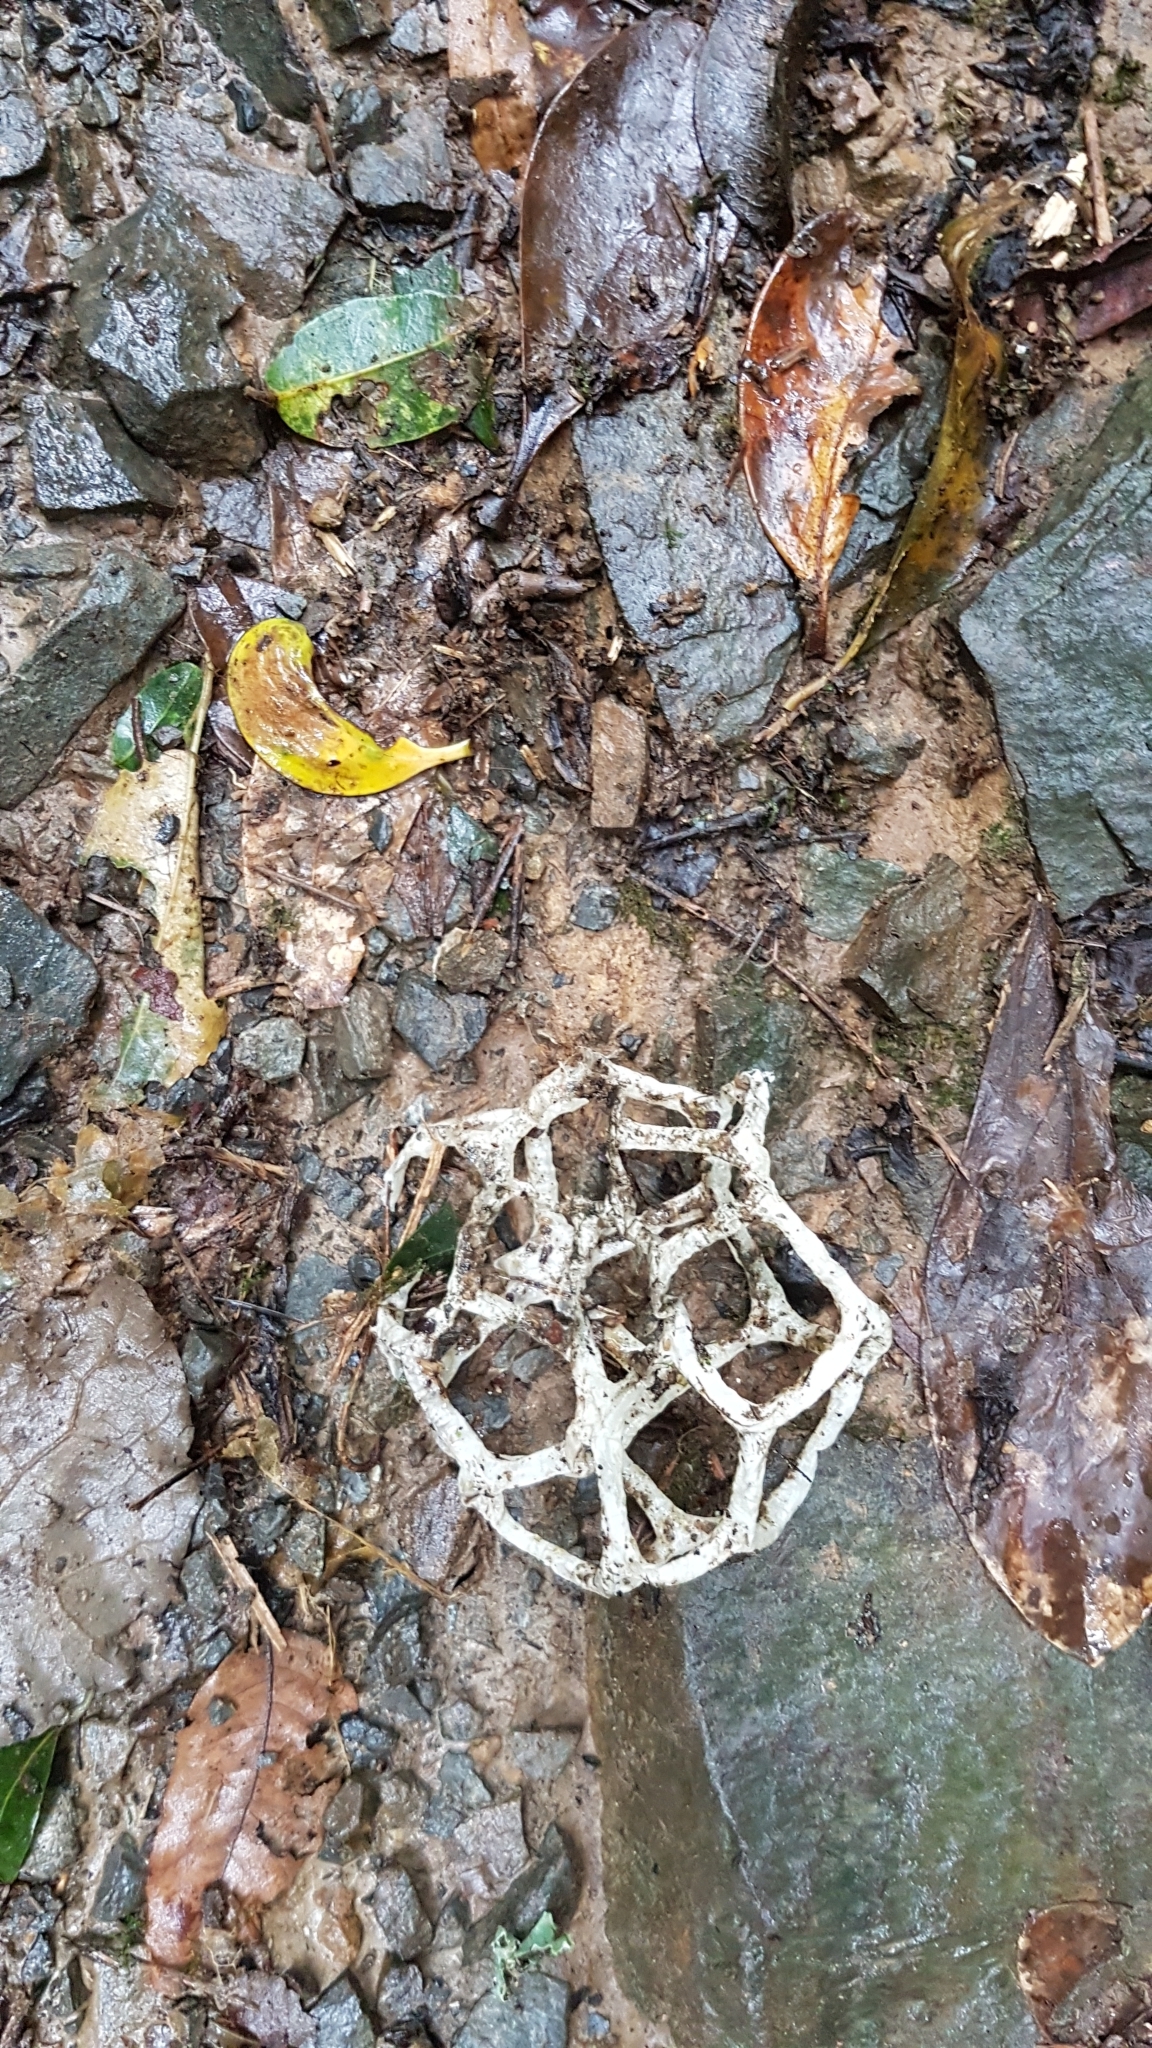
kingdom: Fungi
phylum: Basidiomycota
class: Agaricomycetes
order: Phallales
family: Phallaceae
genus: Ileodictyon
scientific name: Ileodictyon cibarium
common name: Basket fungus
